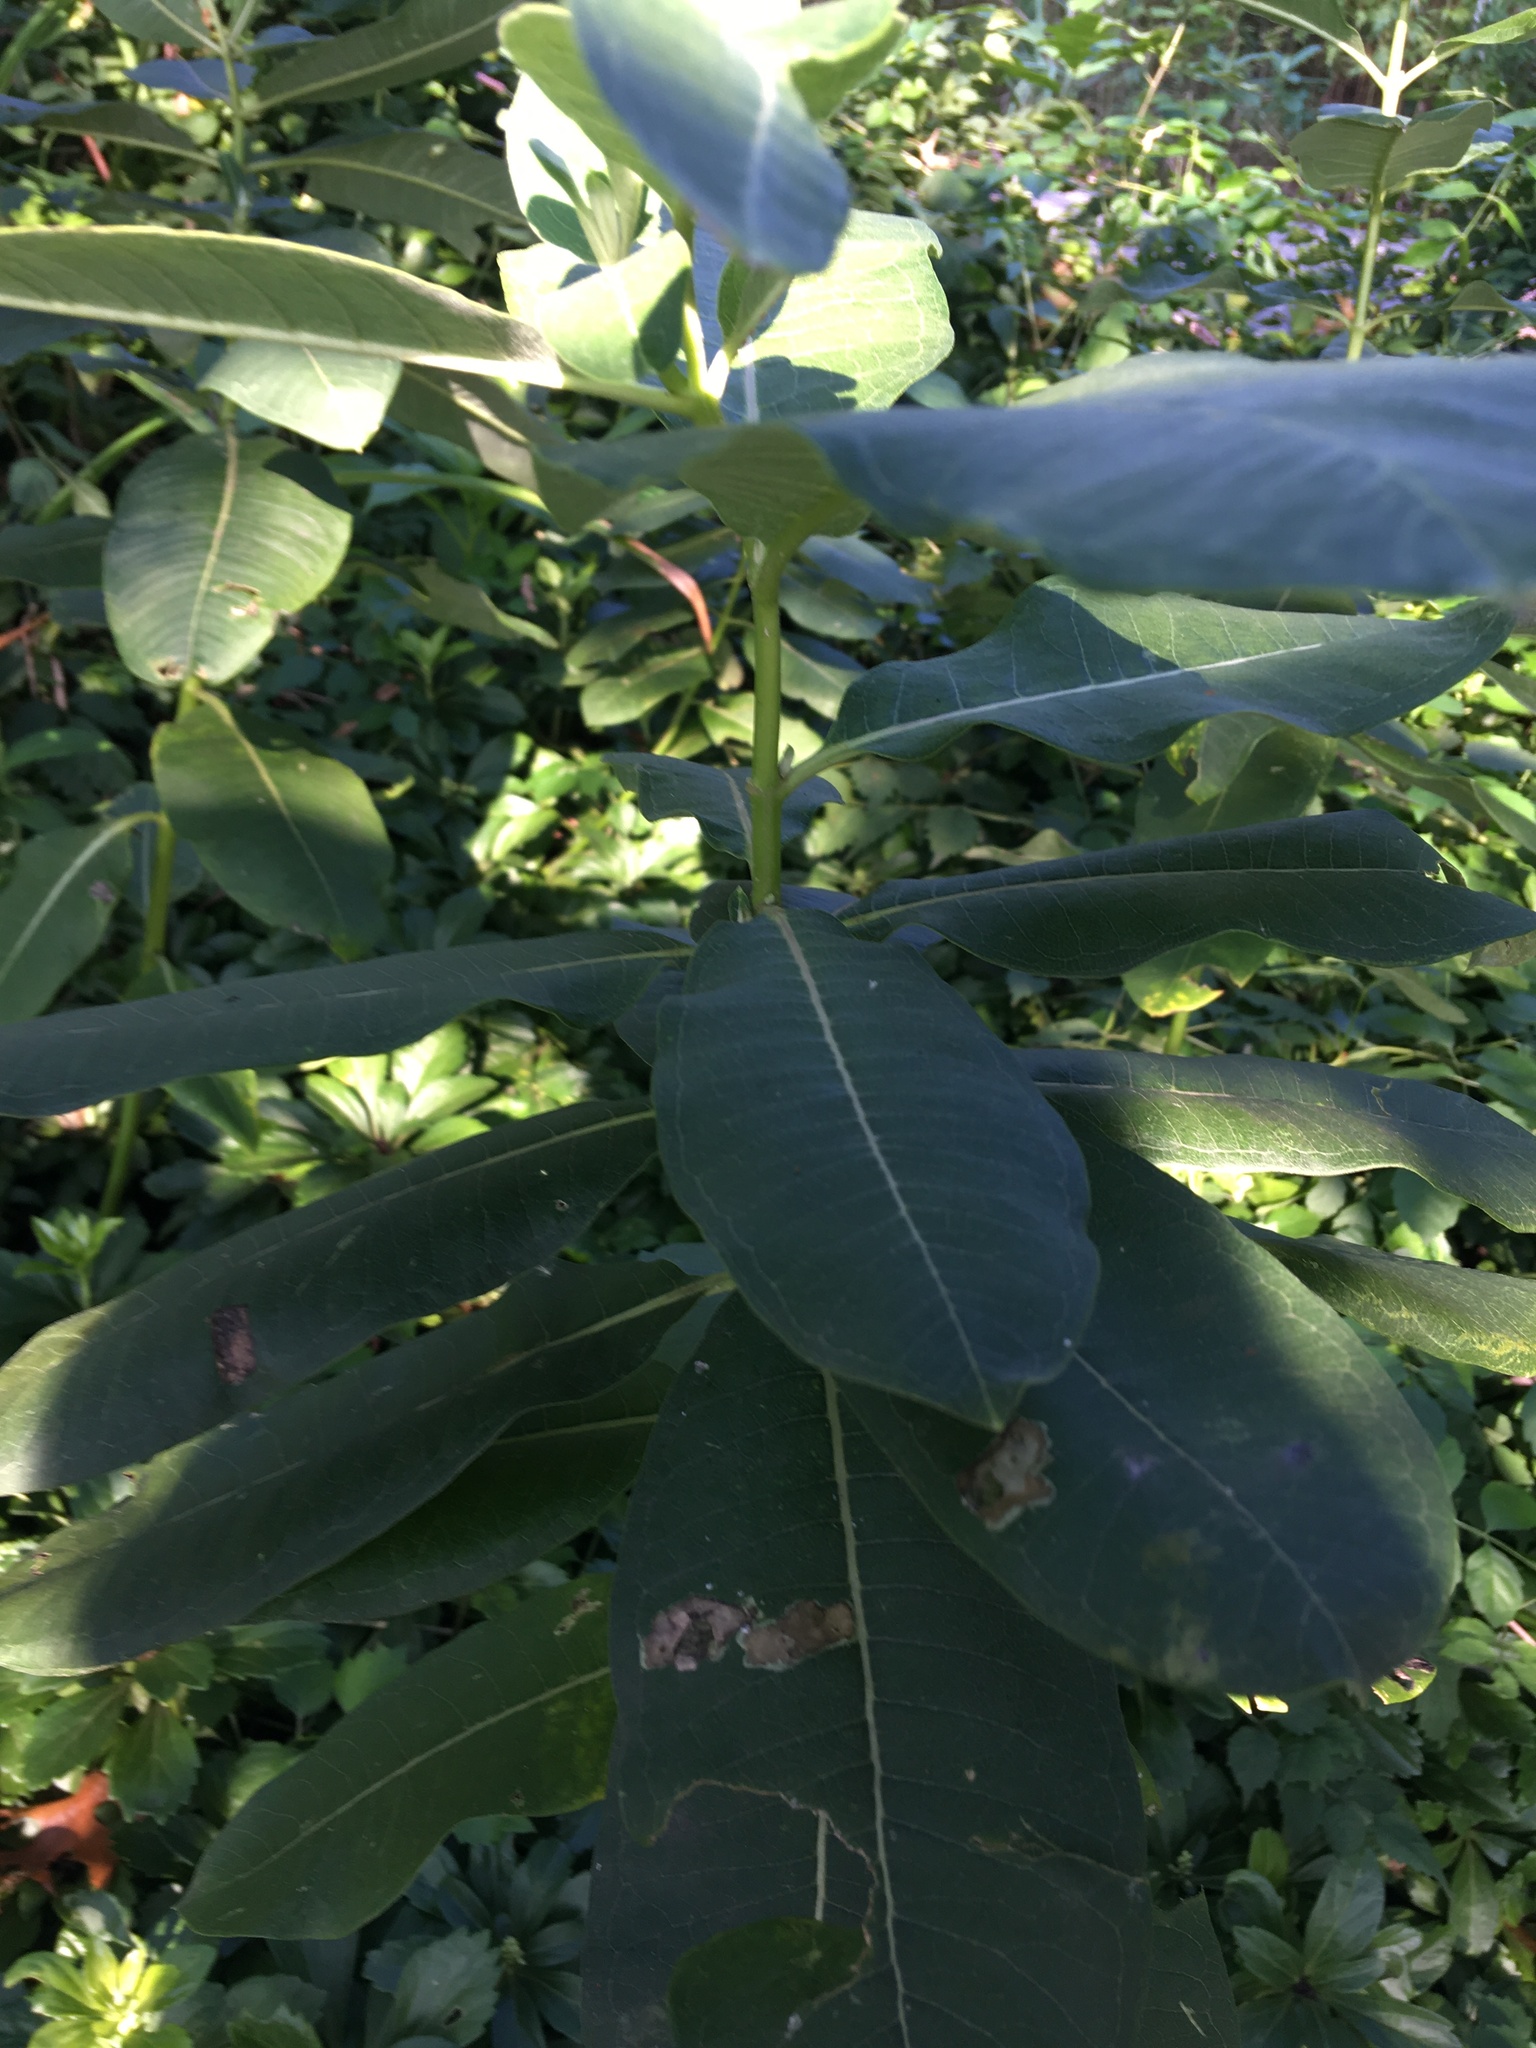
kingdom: Plantae
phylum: Tracheophyta
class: Magnoliopsida
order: Gentianales
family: Apocynaceae
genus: Asclepias
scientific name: Asclepias syriaca
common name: Common milkweed
